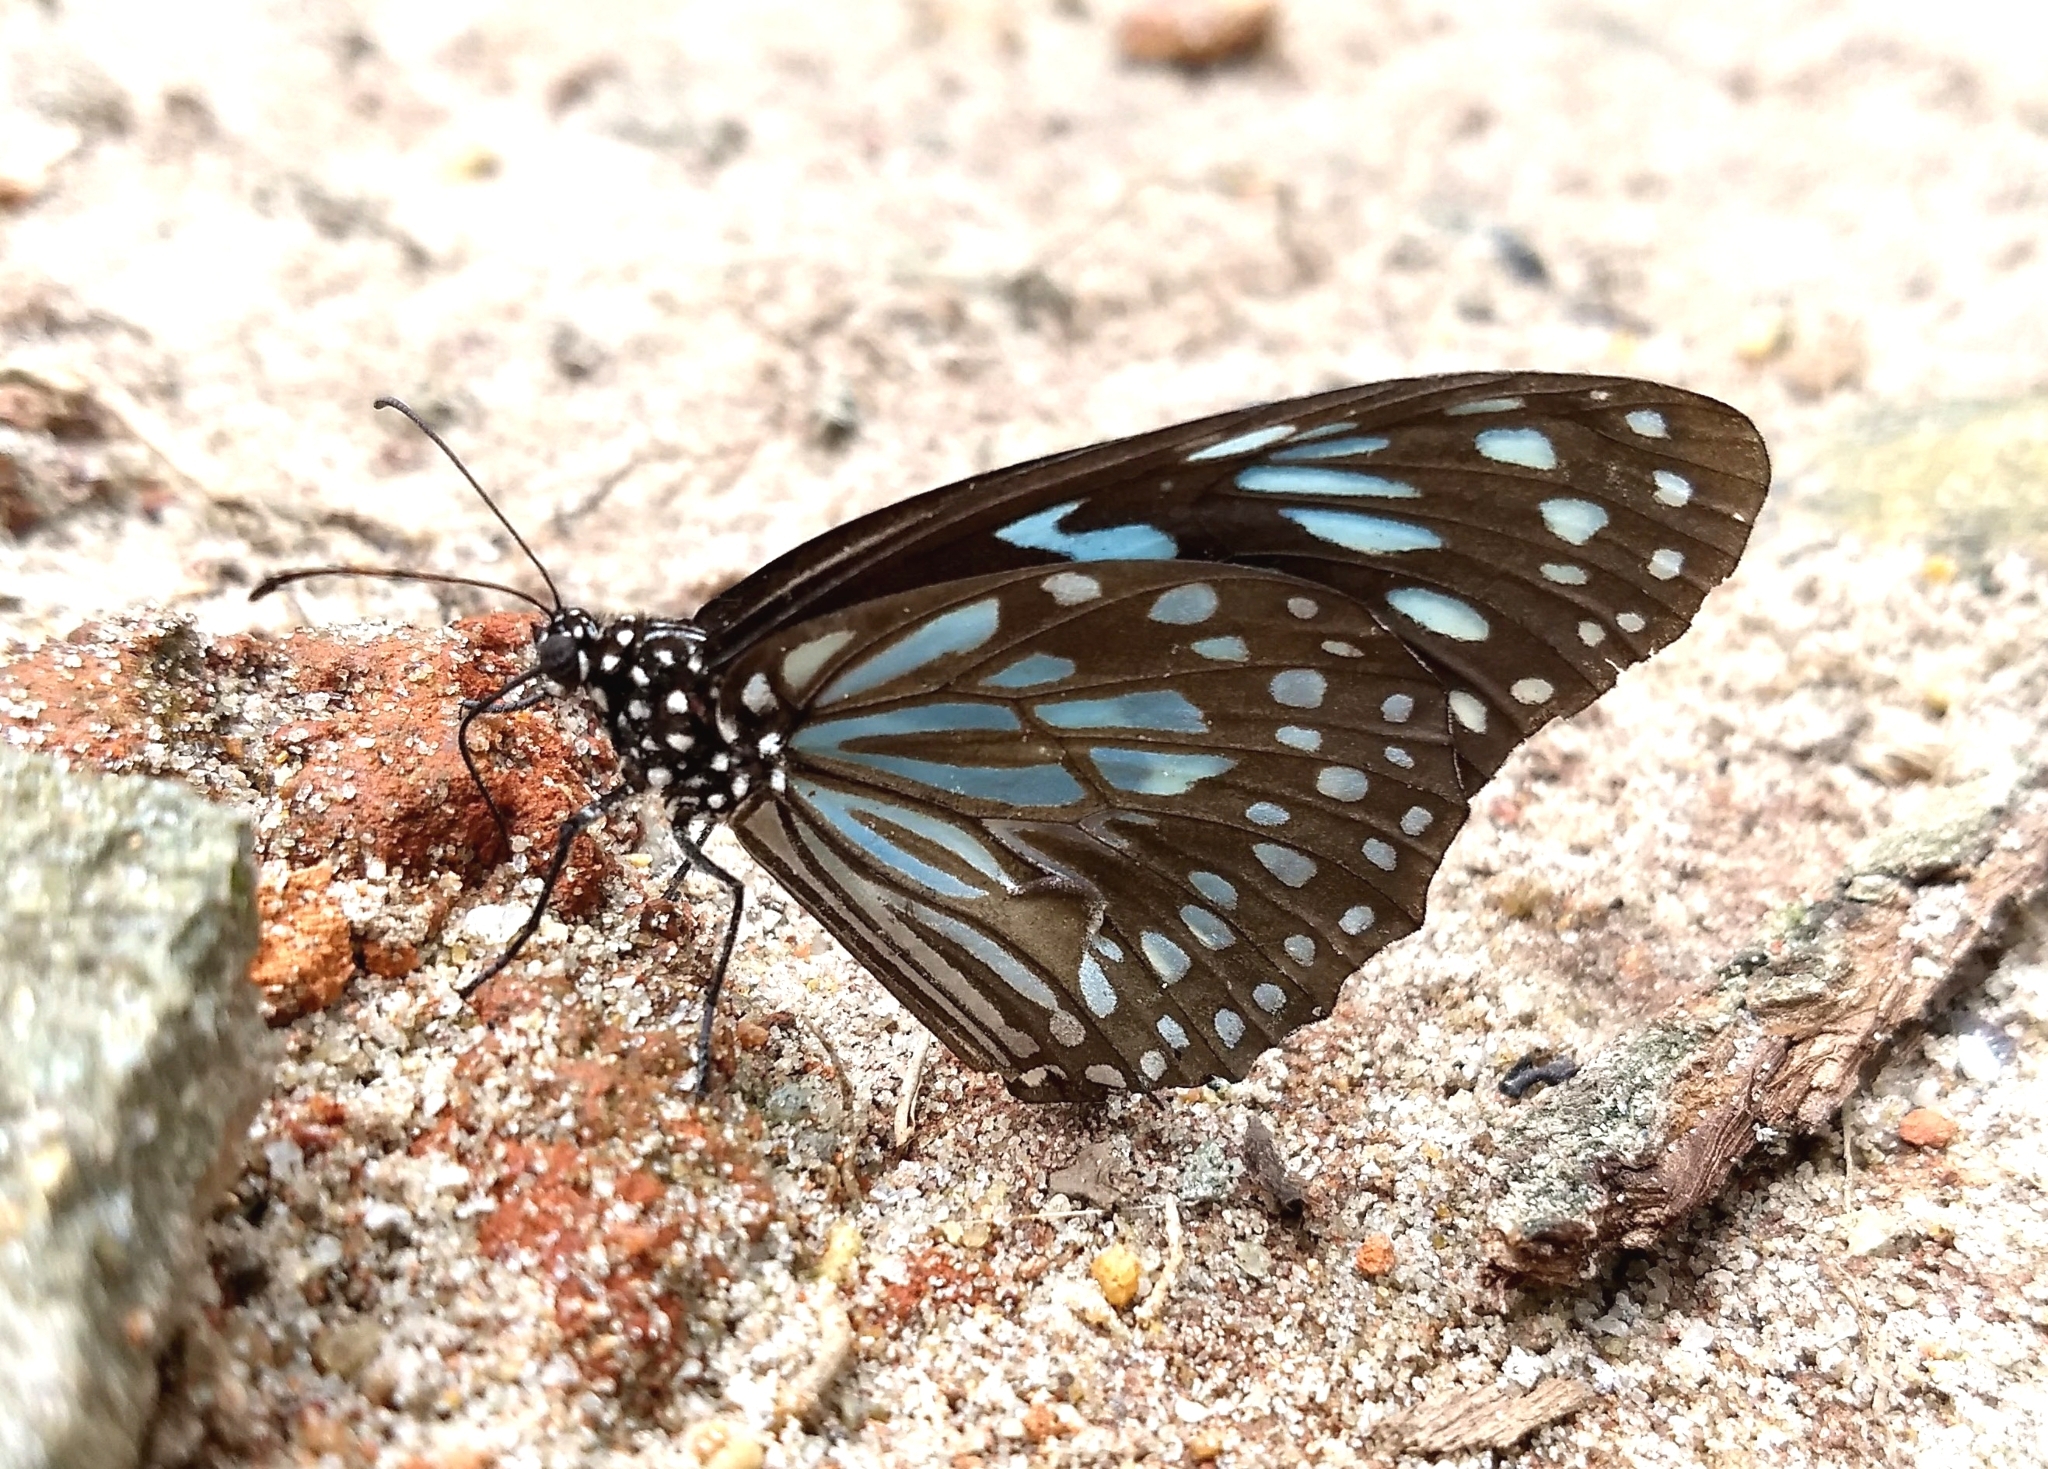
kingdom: Animalia
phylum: Arthropoda
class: Insecta
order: Lepidoptera
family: Nymphalidae
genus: Tirumala
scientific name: Tirumala septentrionis
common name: Dark blue tiger butterfly
